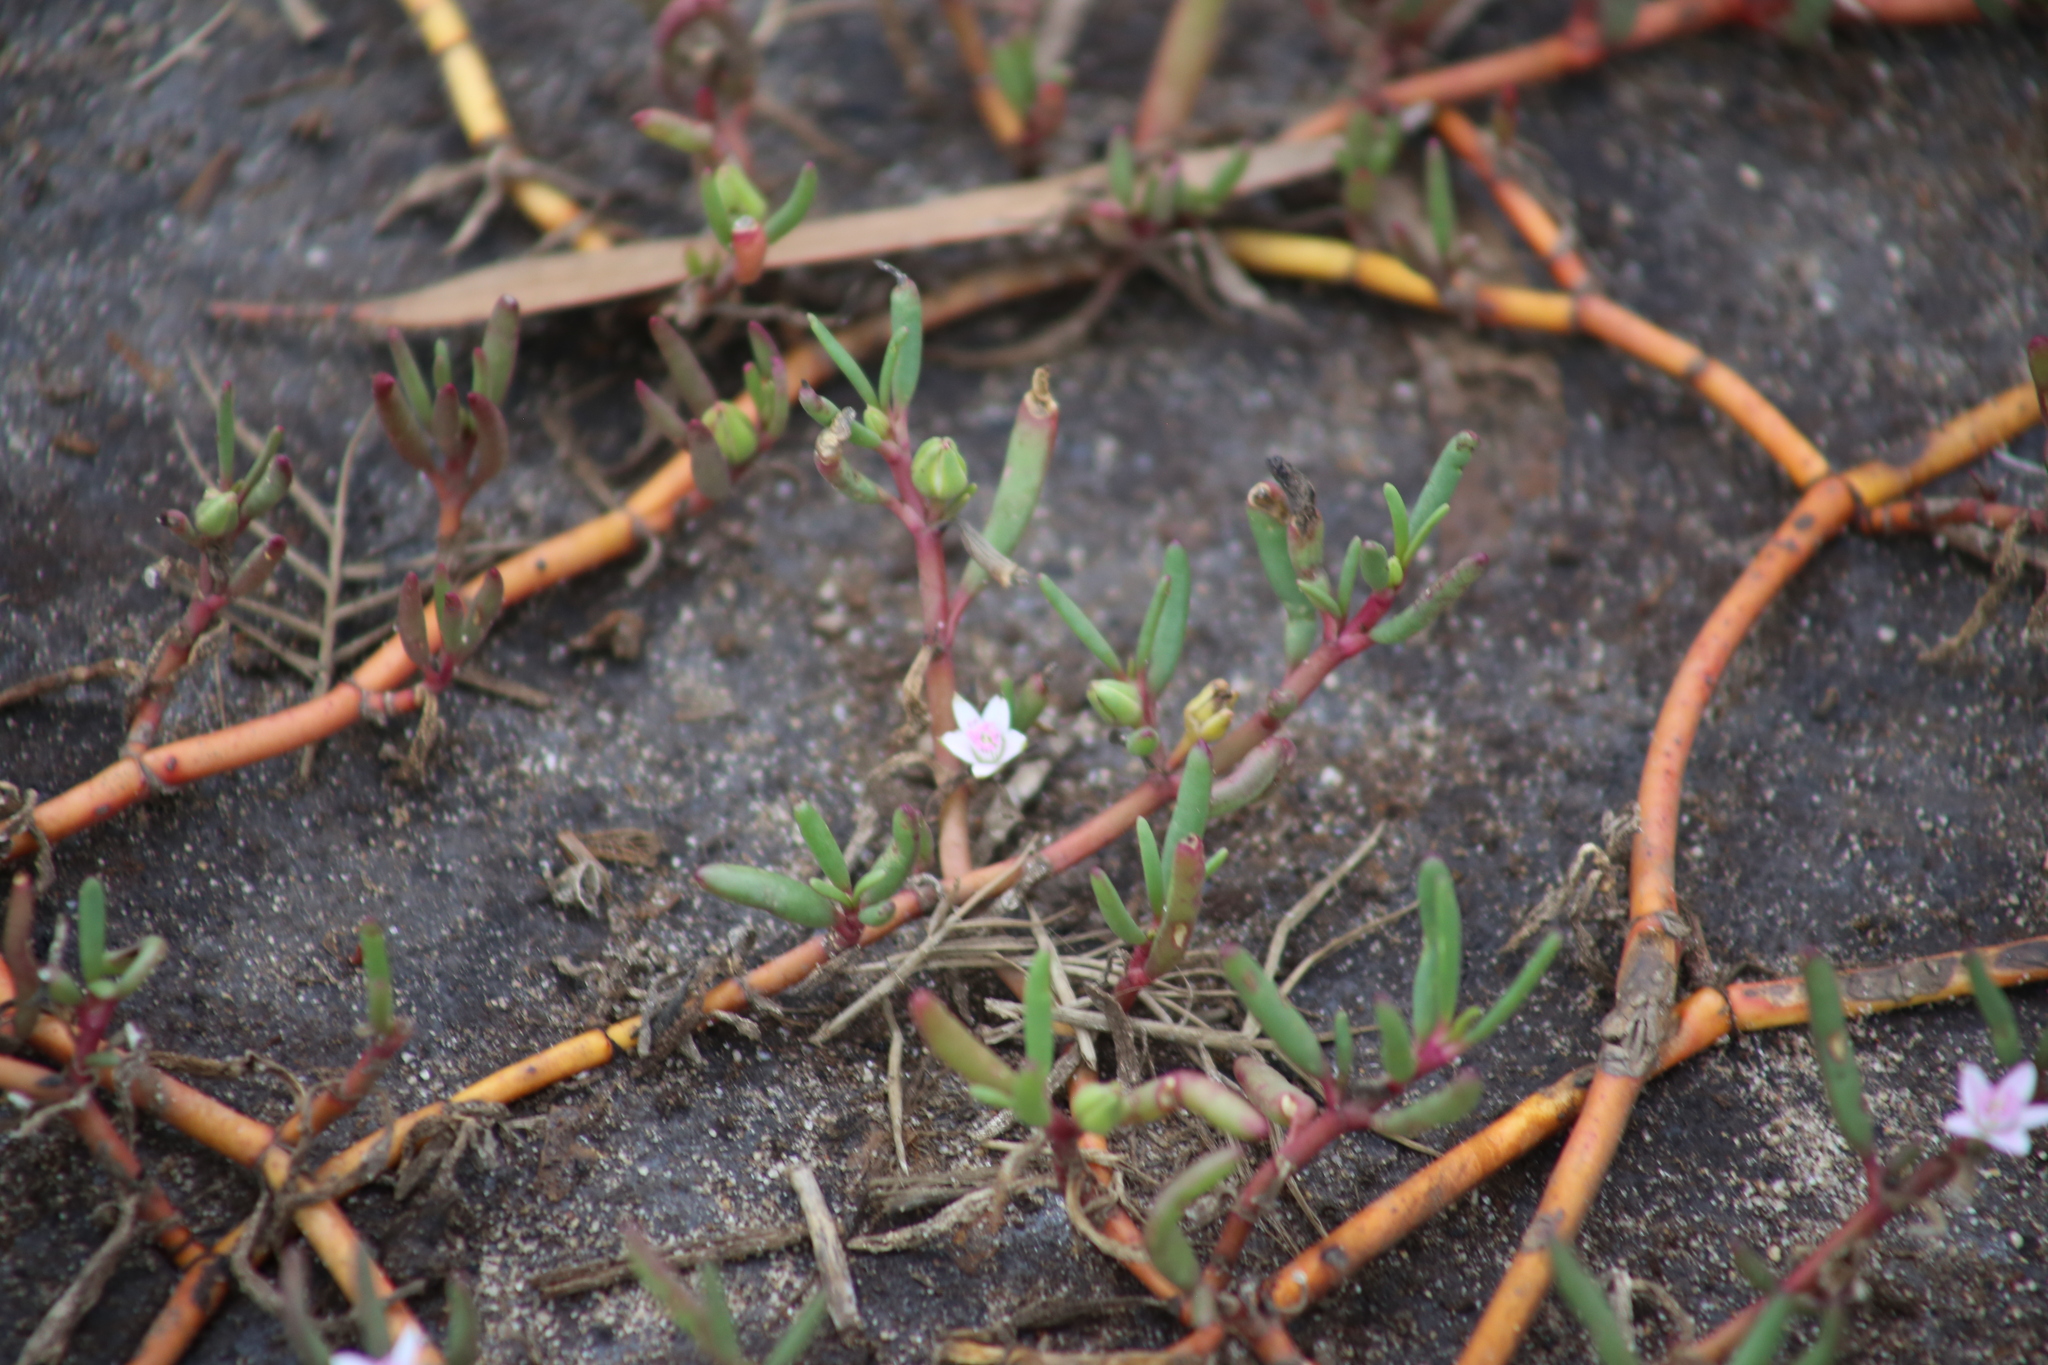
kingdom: Plantae
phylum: Tracheophyta
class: Magnoliopsida
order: Caryophyllales
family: Aizoaceae
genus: Sesuvium
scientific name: Sesuvium portulacastrum
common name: Sea-purslane
